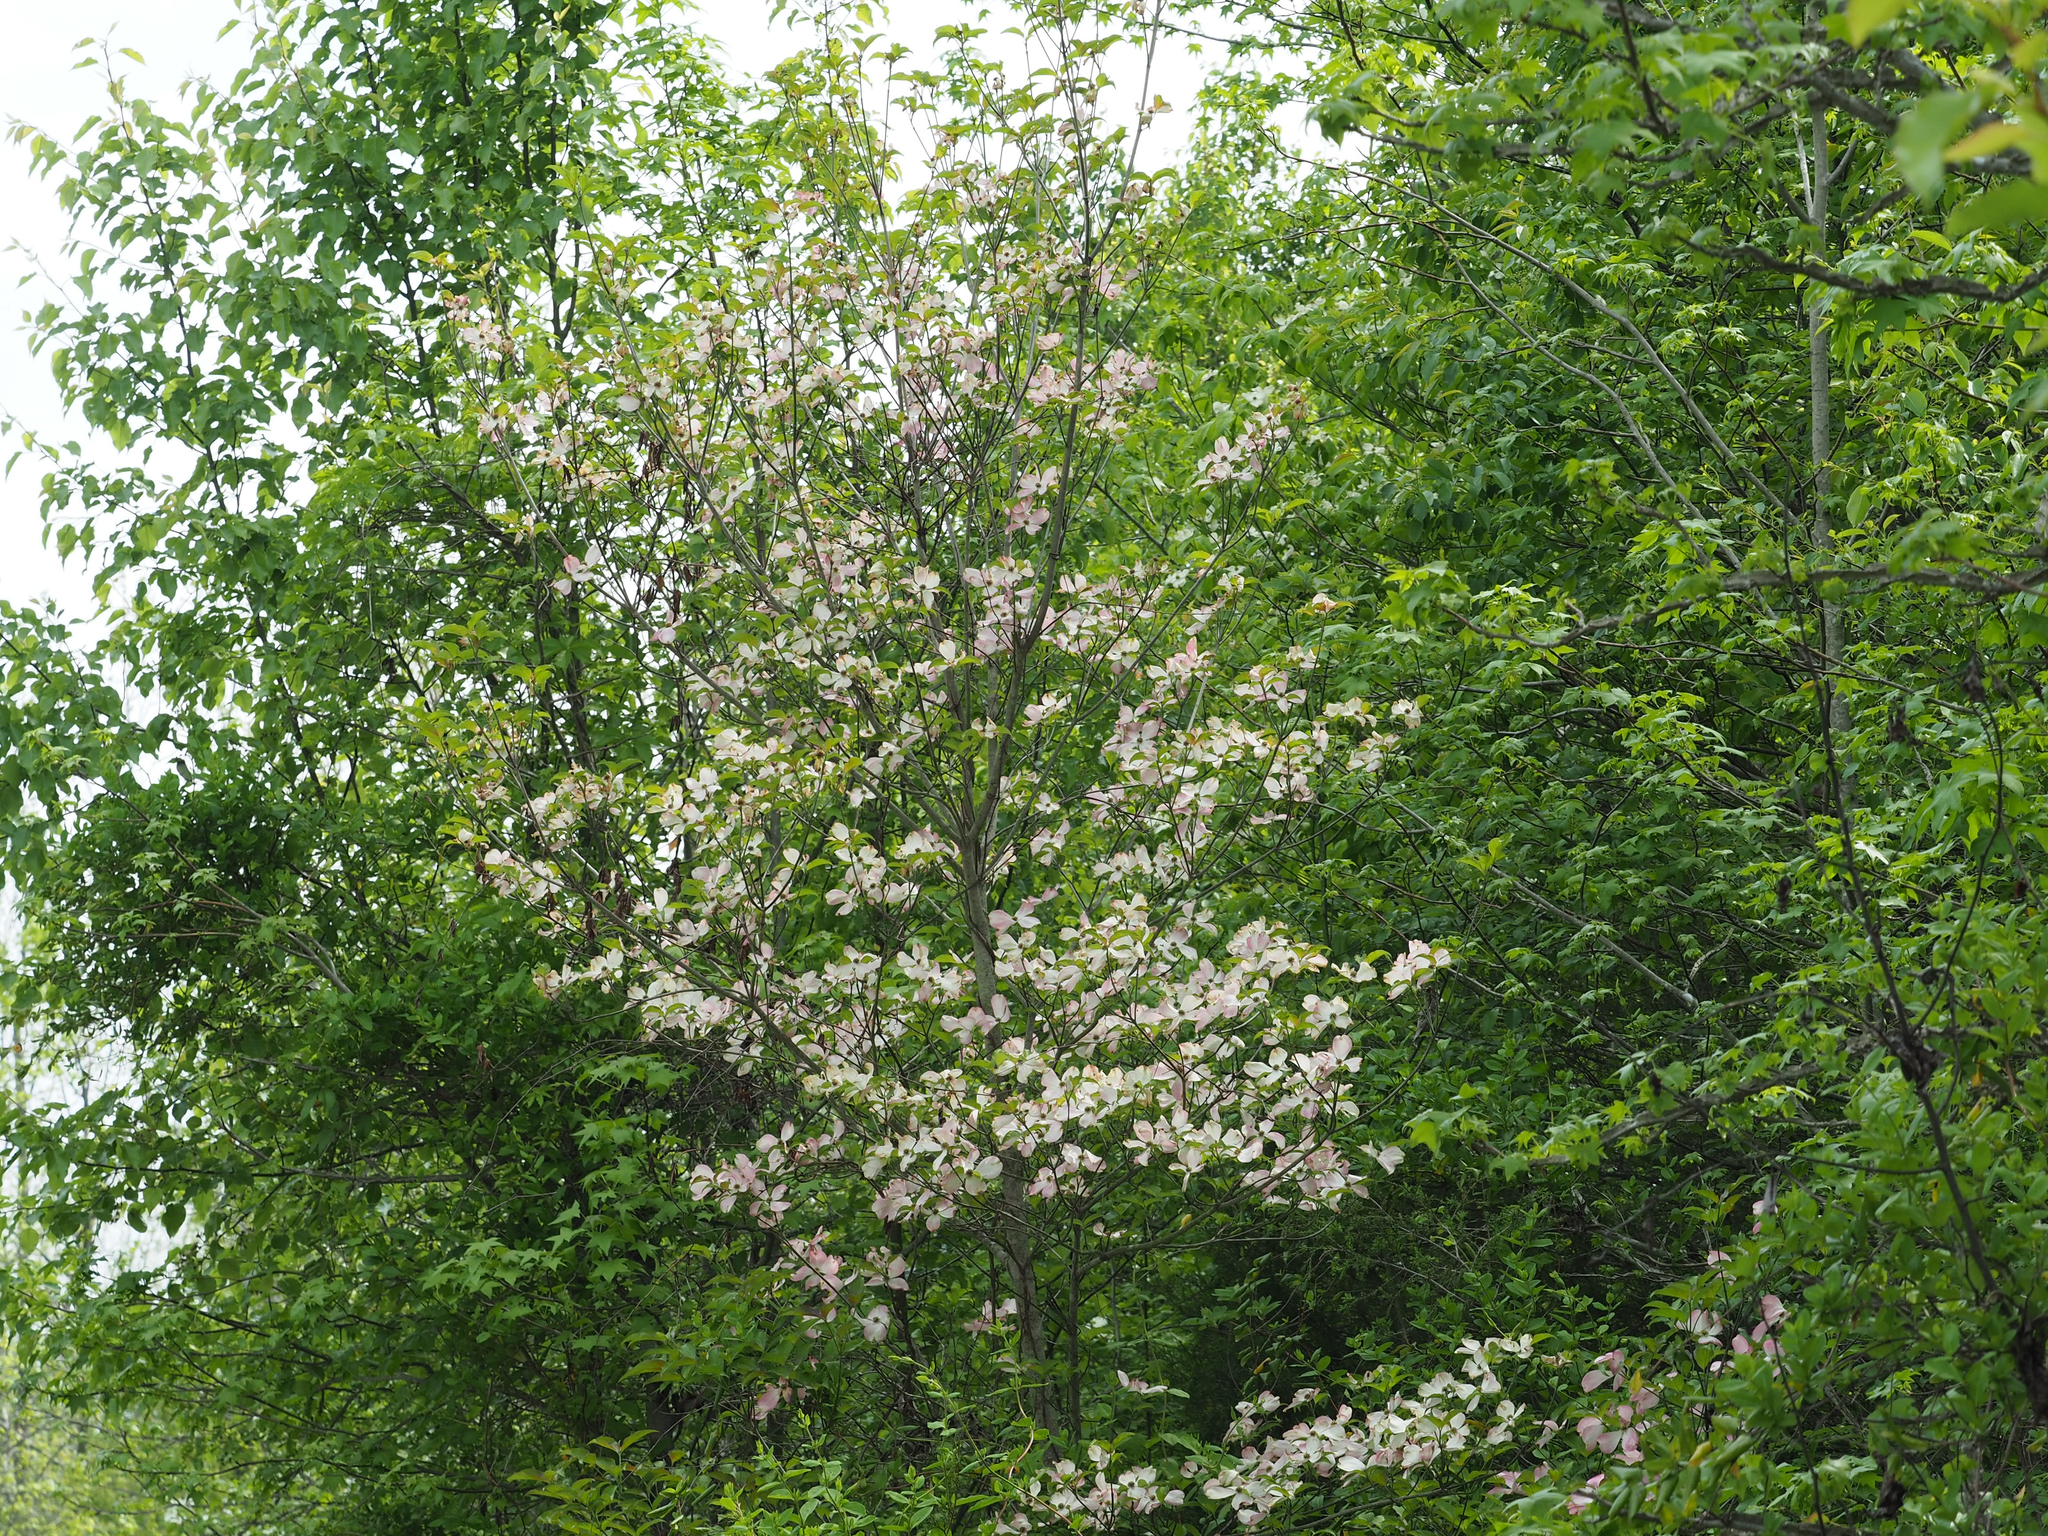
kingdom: Plantae
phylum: Tracheophyta
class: Magnoliopsida
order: Cornales
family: Cornaceae
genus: Cornus
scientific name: Cornus florida
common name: Flowering dogwood
